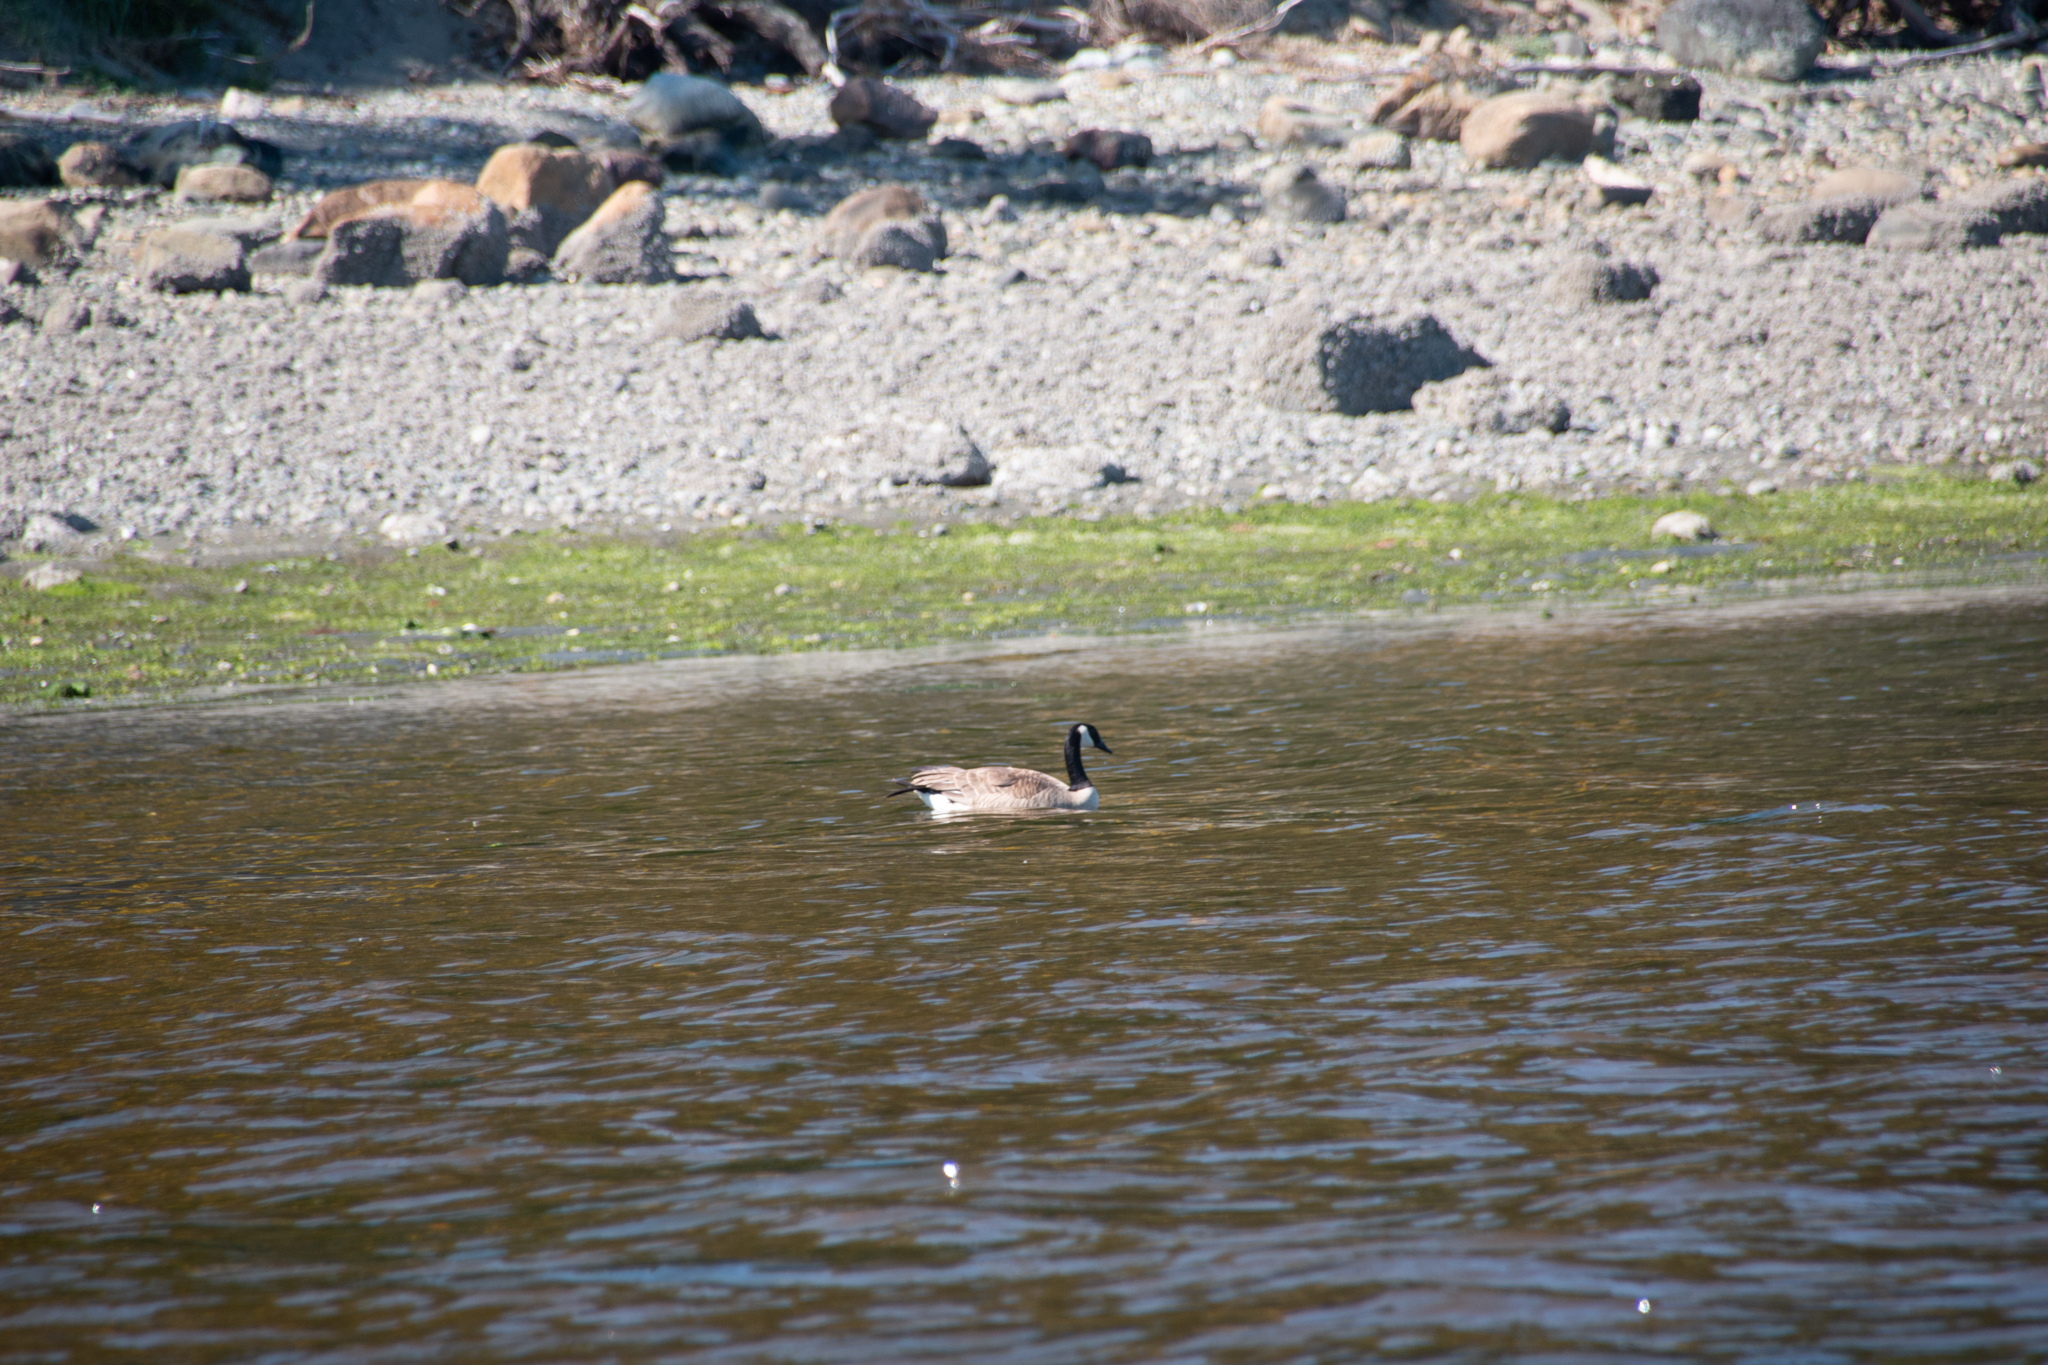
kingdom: Animalia
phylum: Chordata
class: Aves
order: Anseriformes
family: Anatidae
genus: Branta
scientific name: Branta canadensis
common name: Canada goose
